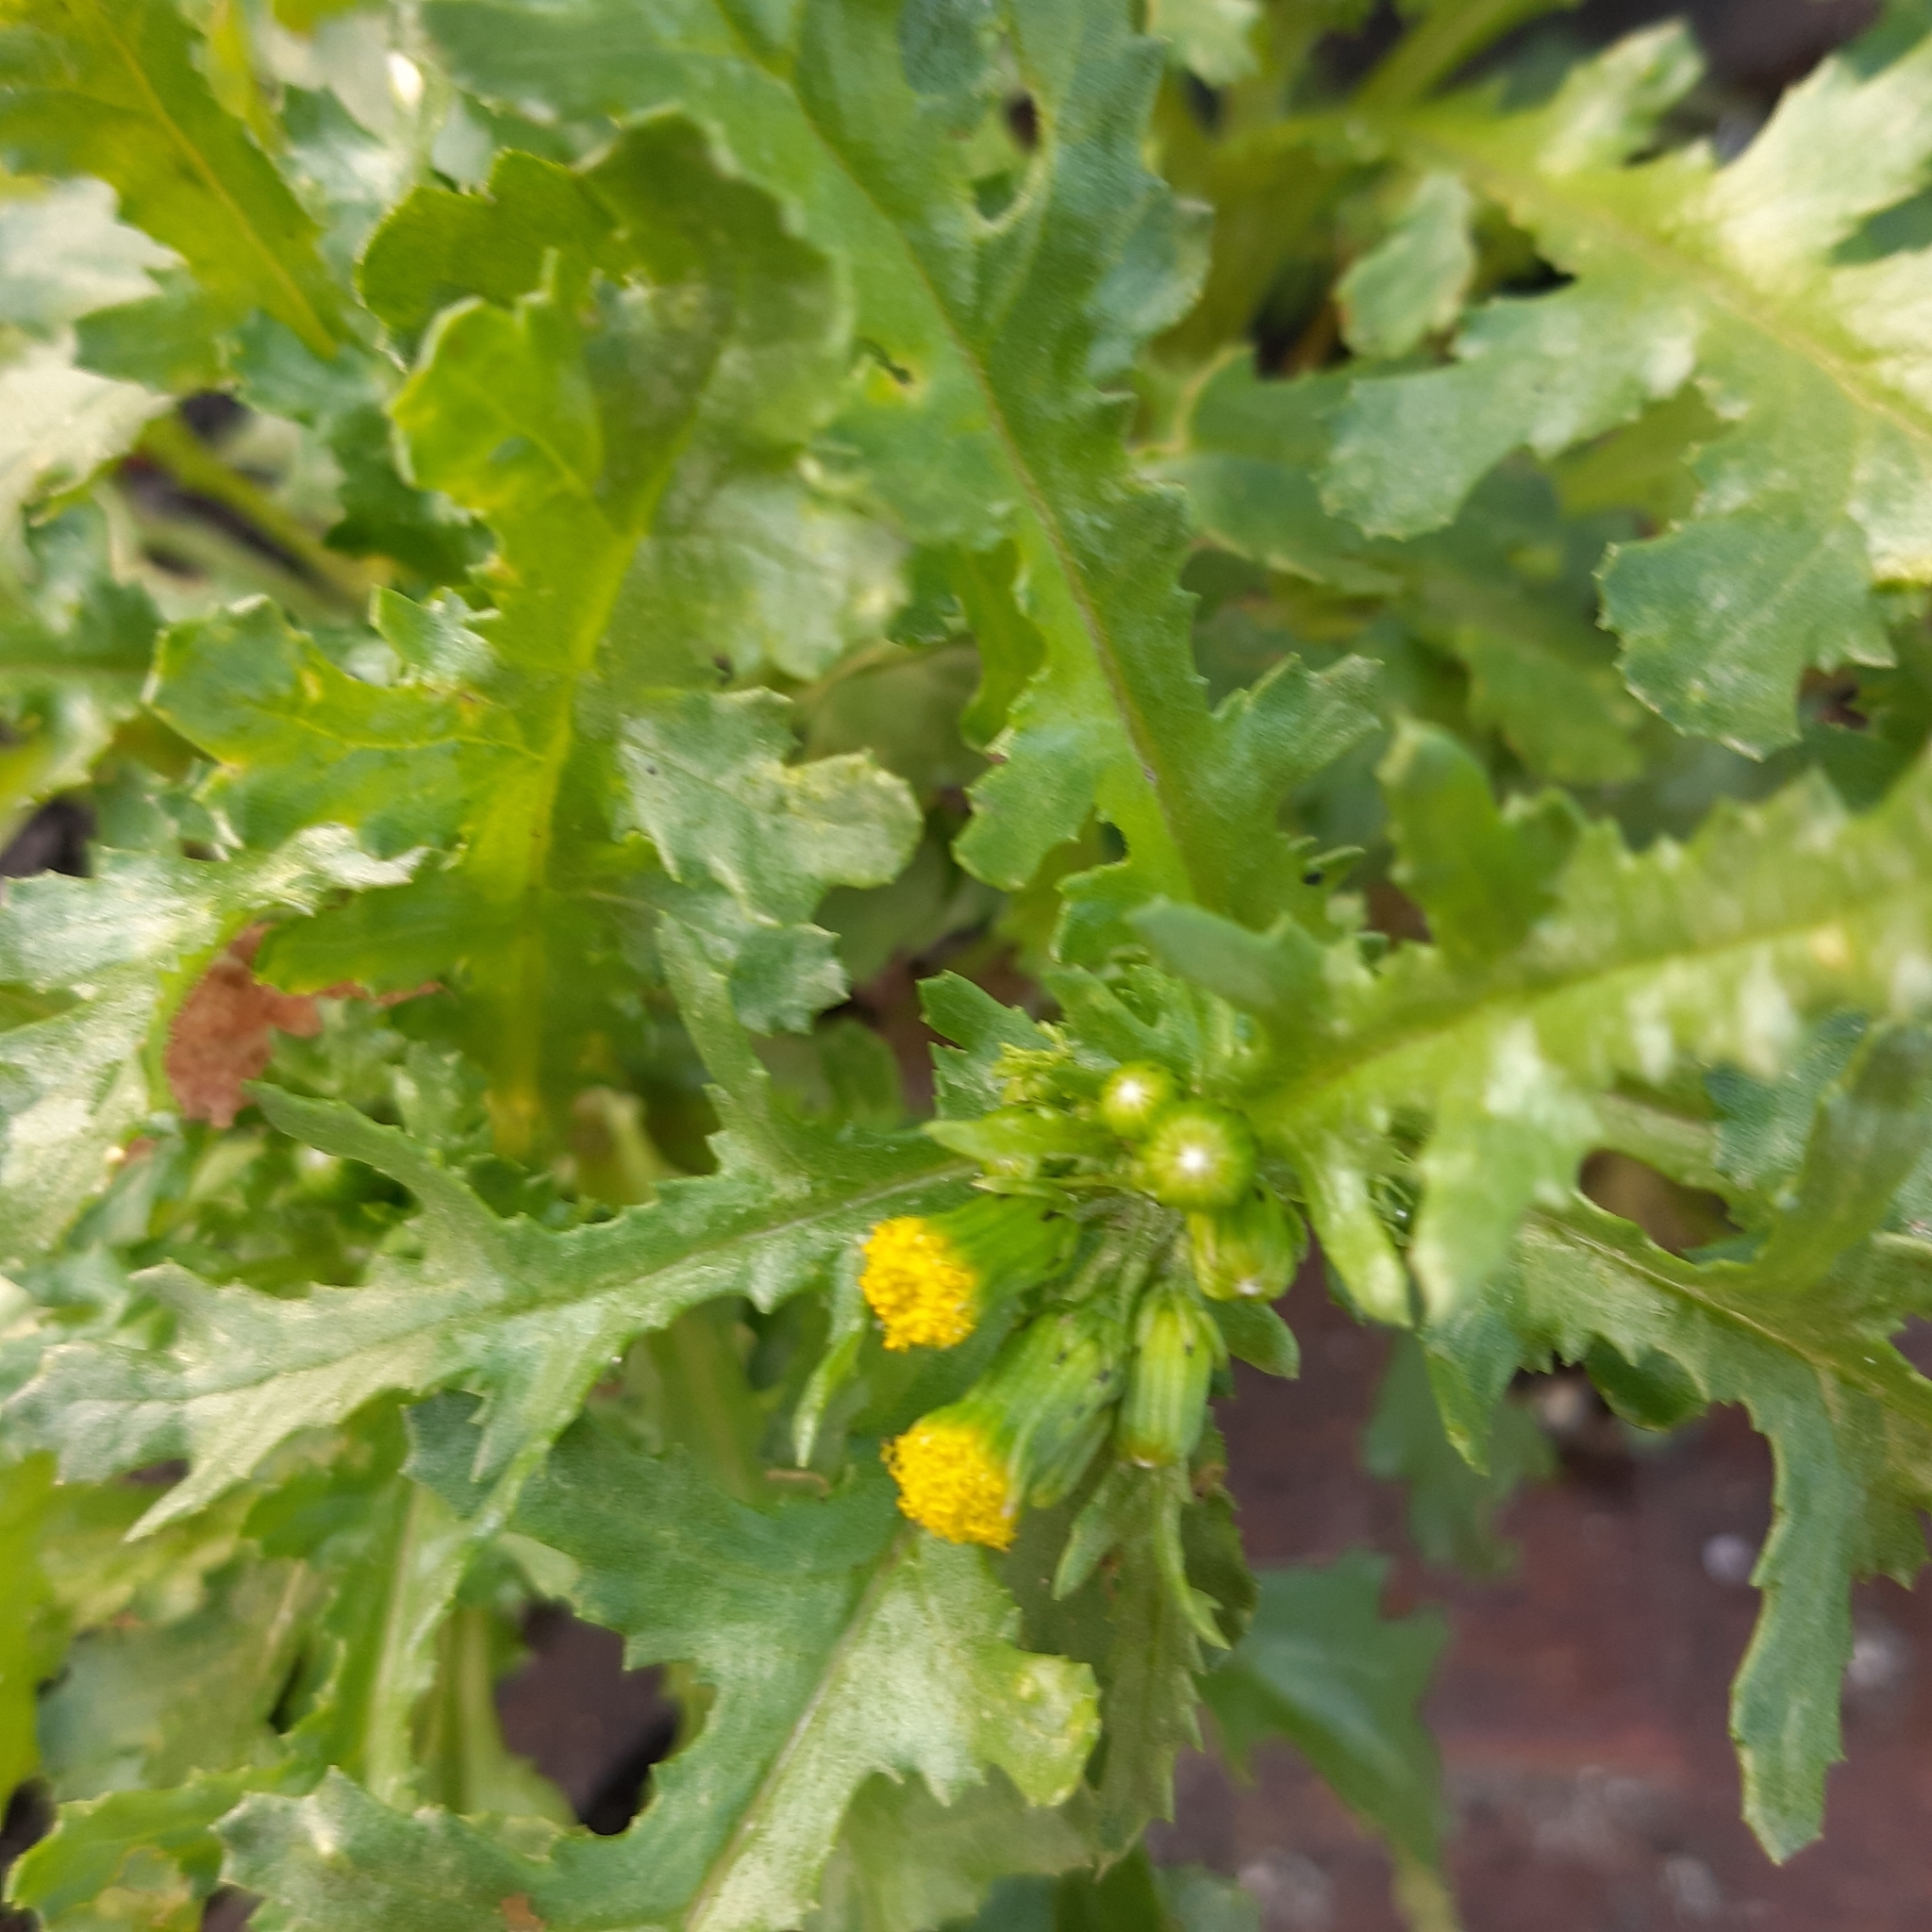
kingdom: Plantae
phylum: Tracheophyta
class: Magnoliopsida
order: Asterales
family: Asteraceae
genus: Senecio
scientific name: Senecio vulgaris
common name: Old-man-in-the-spring
